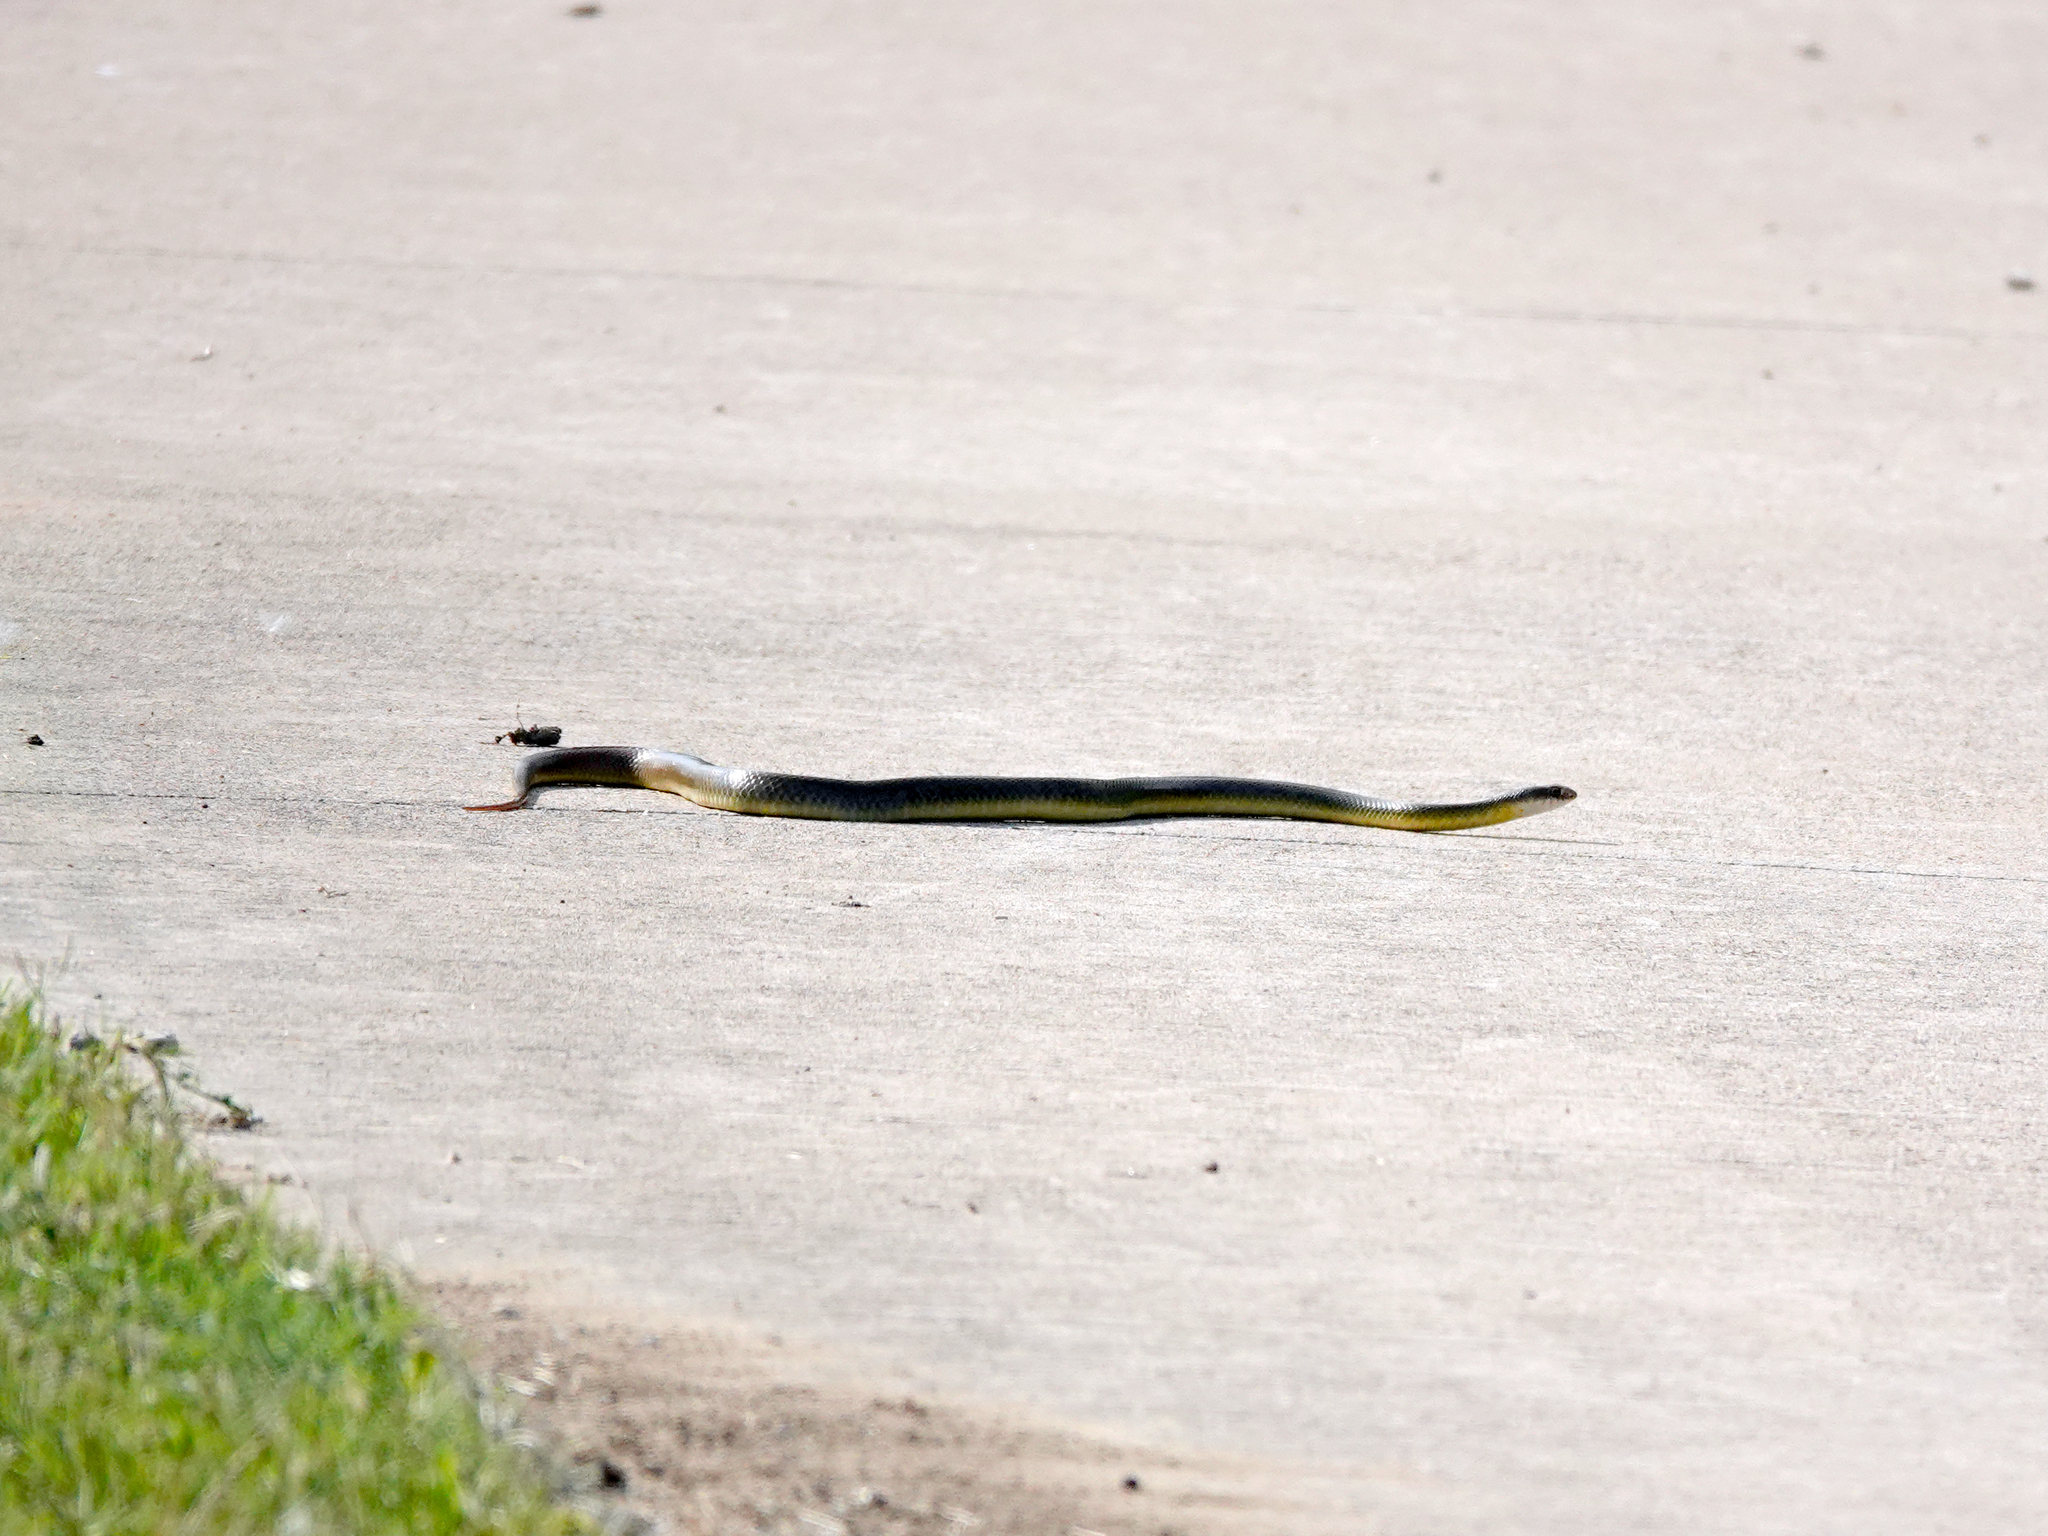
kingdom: Animalia
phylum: Chordata
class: Squamata
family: Colubridae
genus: Coluber
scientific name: Coluber constrictor
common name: Eastern racer
